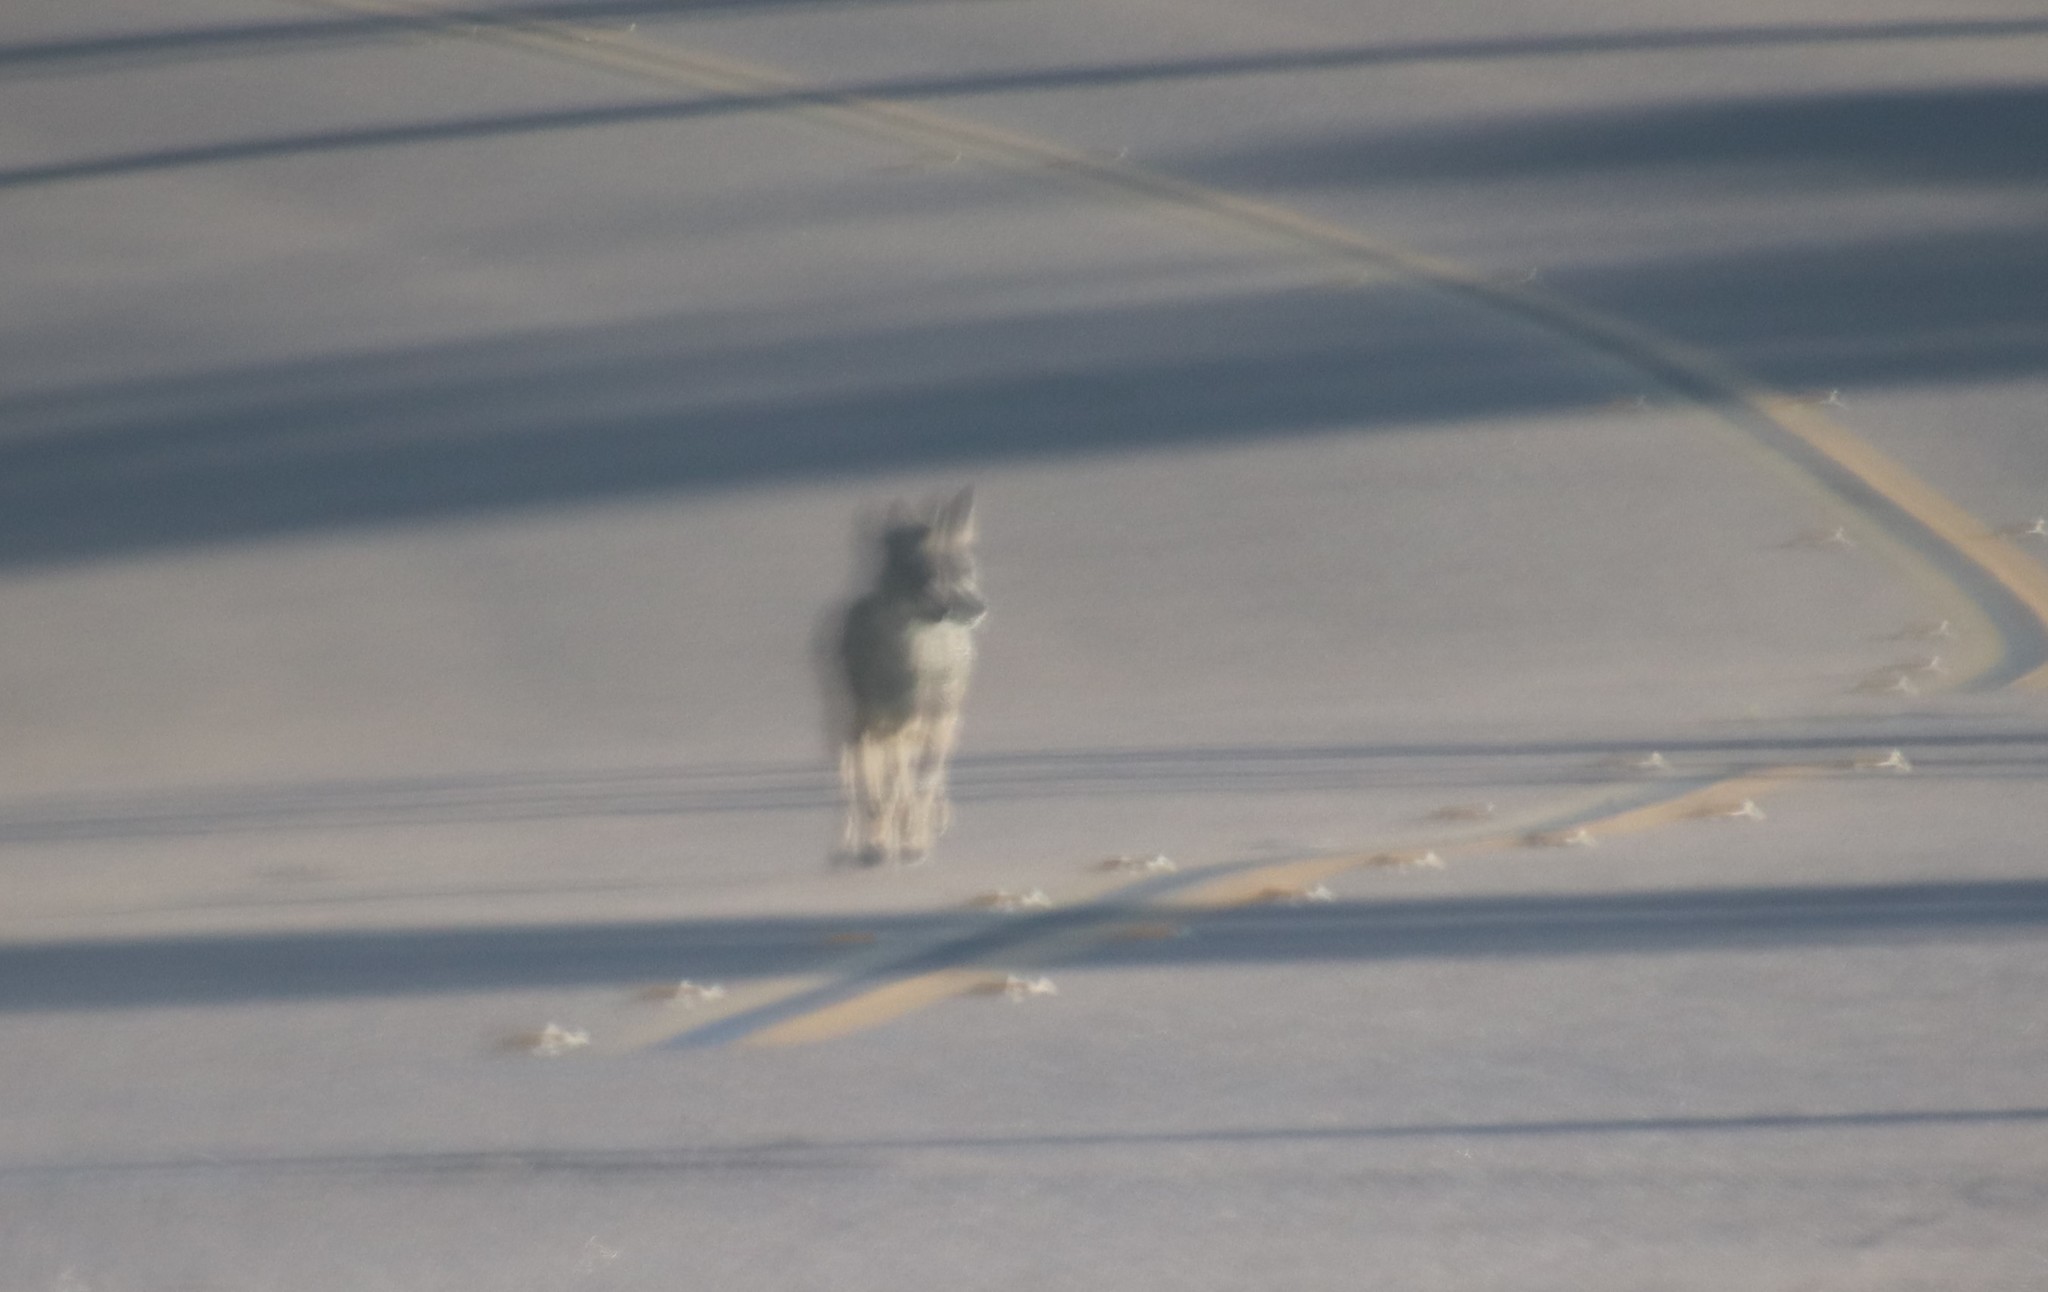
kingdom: Animalia
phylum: Chordata
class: Mammalia
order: Carnivora
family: Canidae
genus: Canis
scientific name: Canis latrans
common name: Coyote
